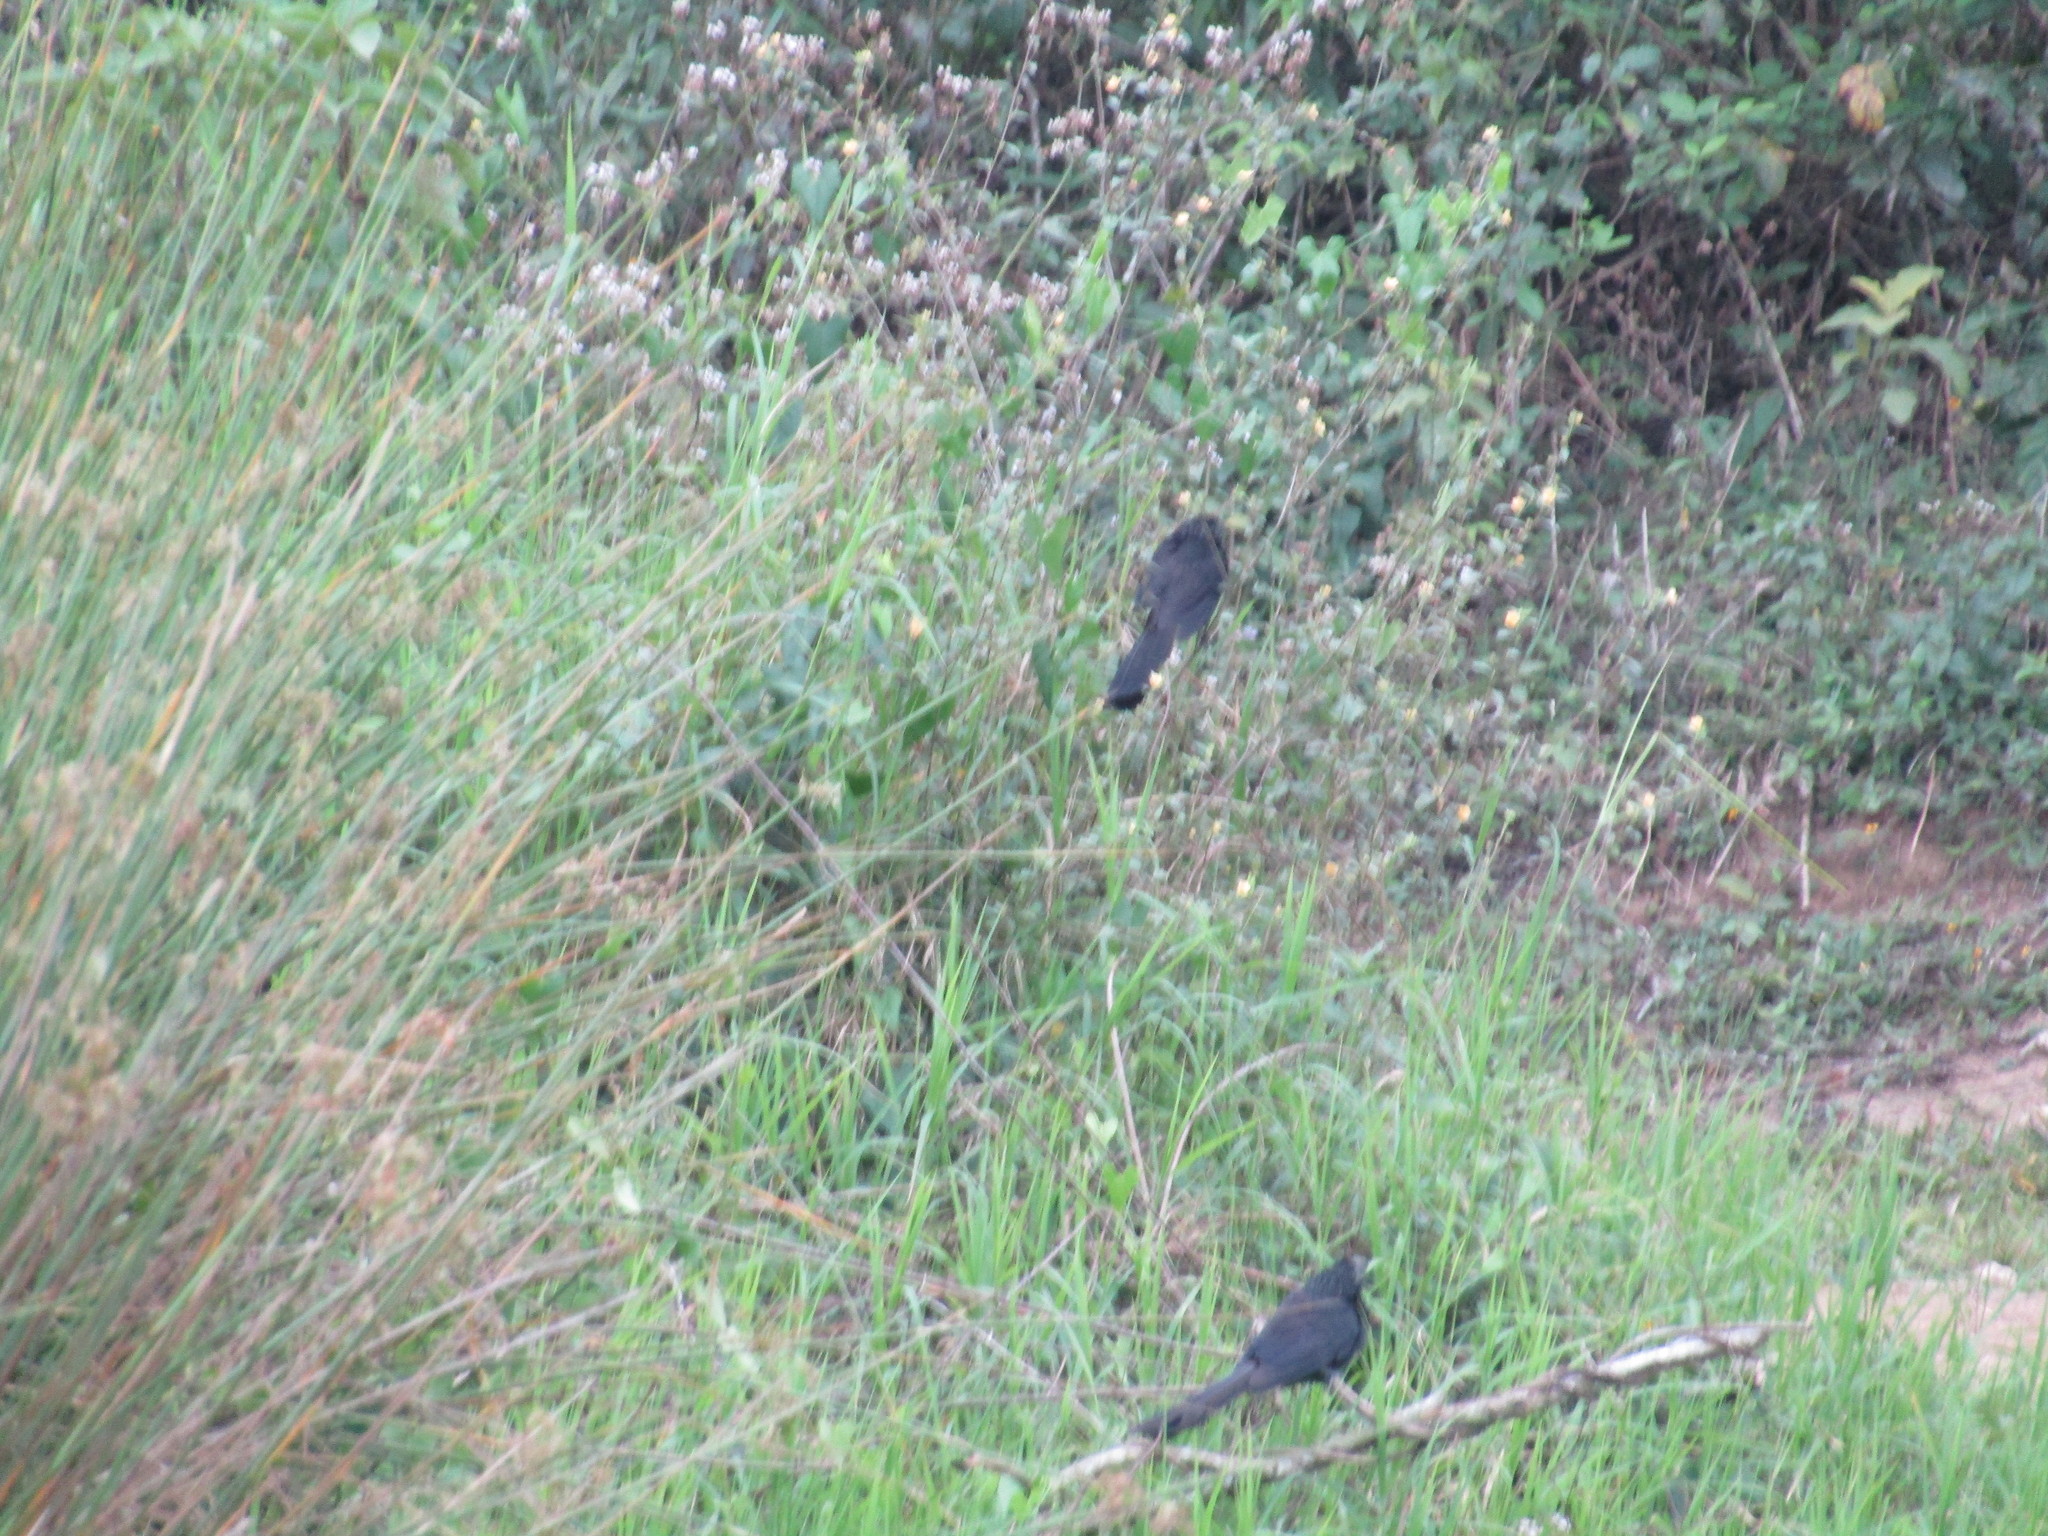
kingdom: Animalia
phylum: Chordata
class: Aves
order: Cuculiformes
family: Cuculidae
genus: Crotophaga
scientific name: Crotophaga sulcirostris
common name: Groove-billed ani
